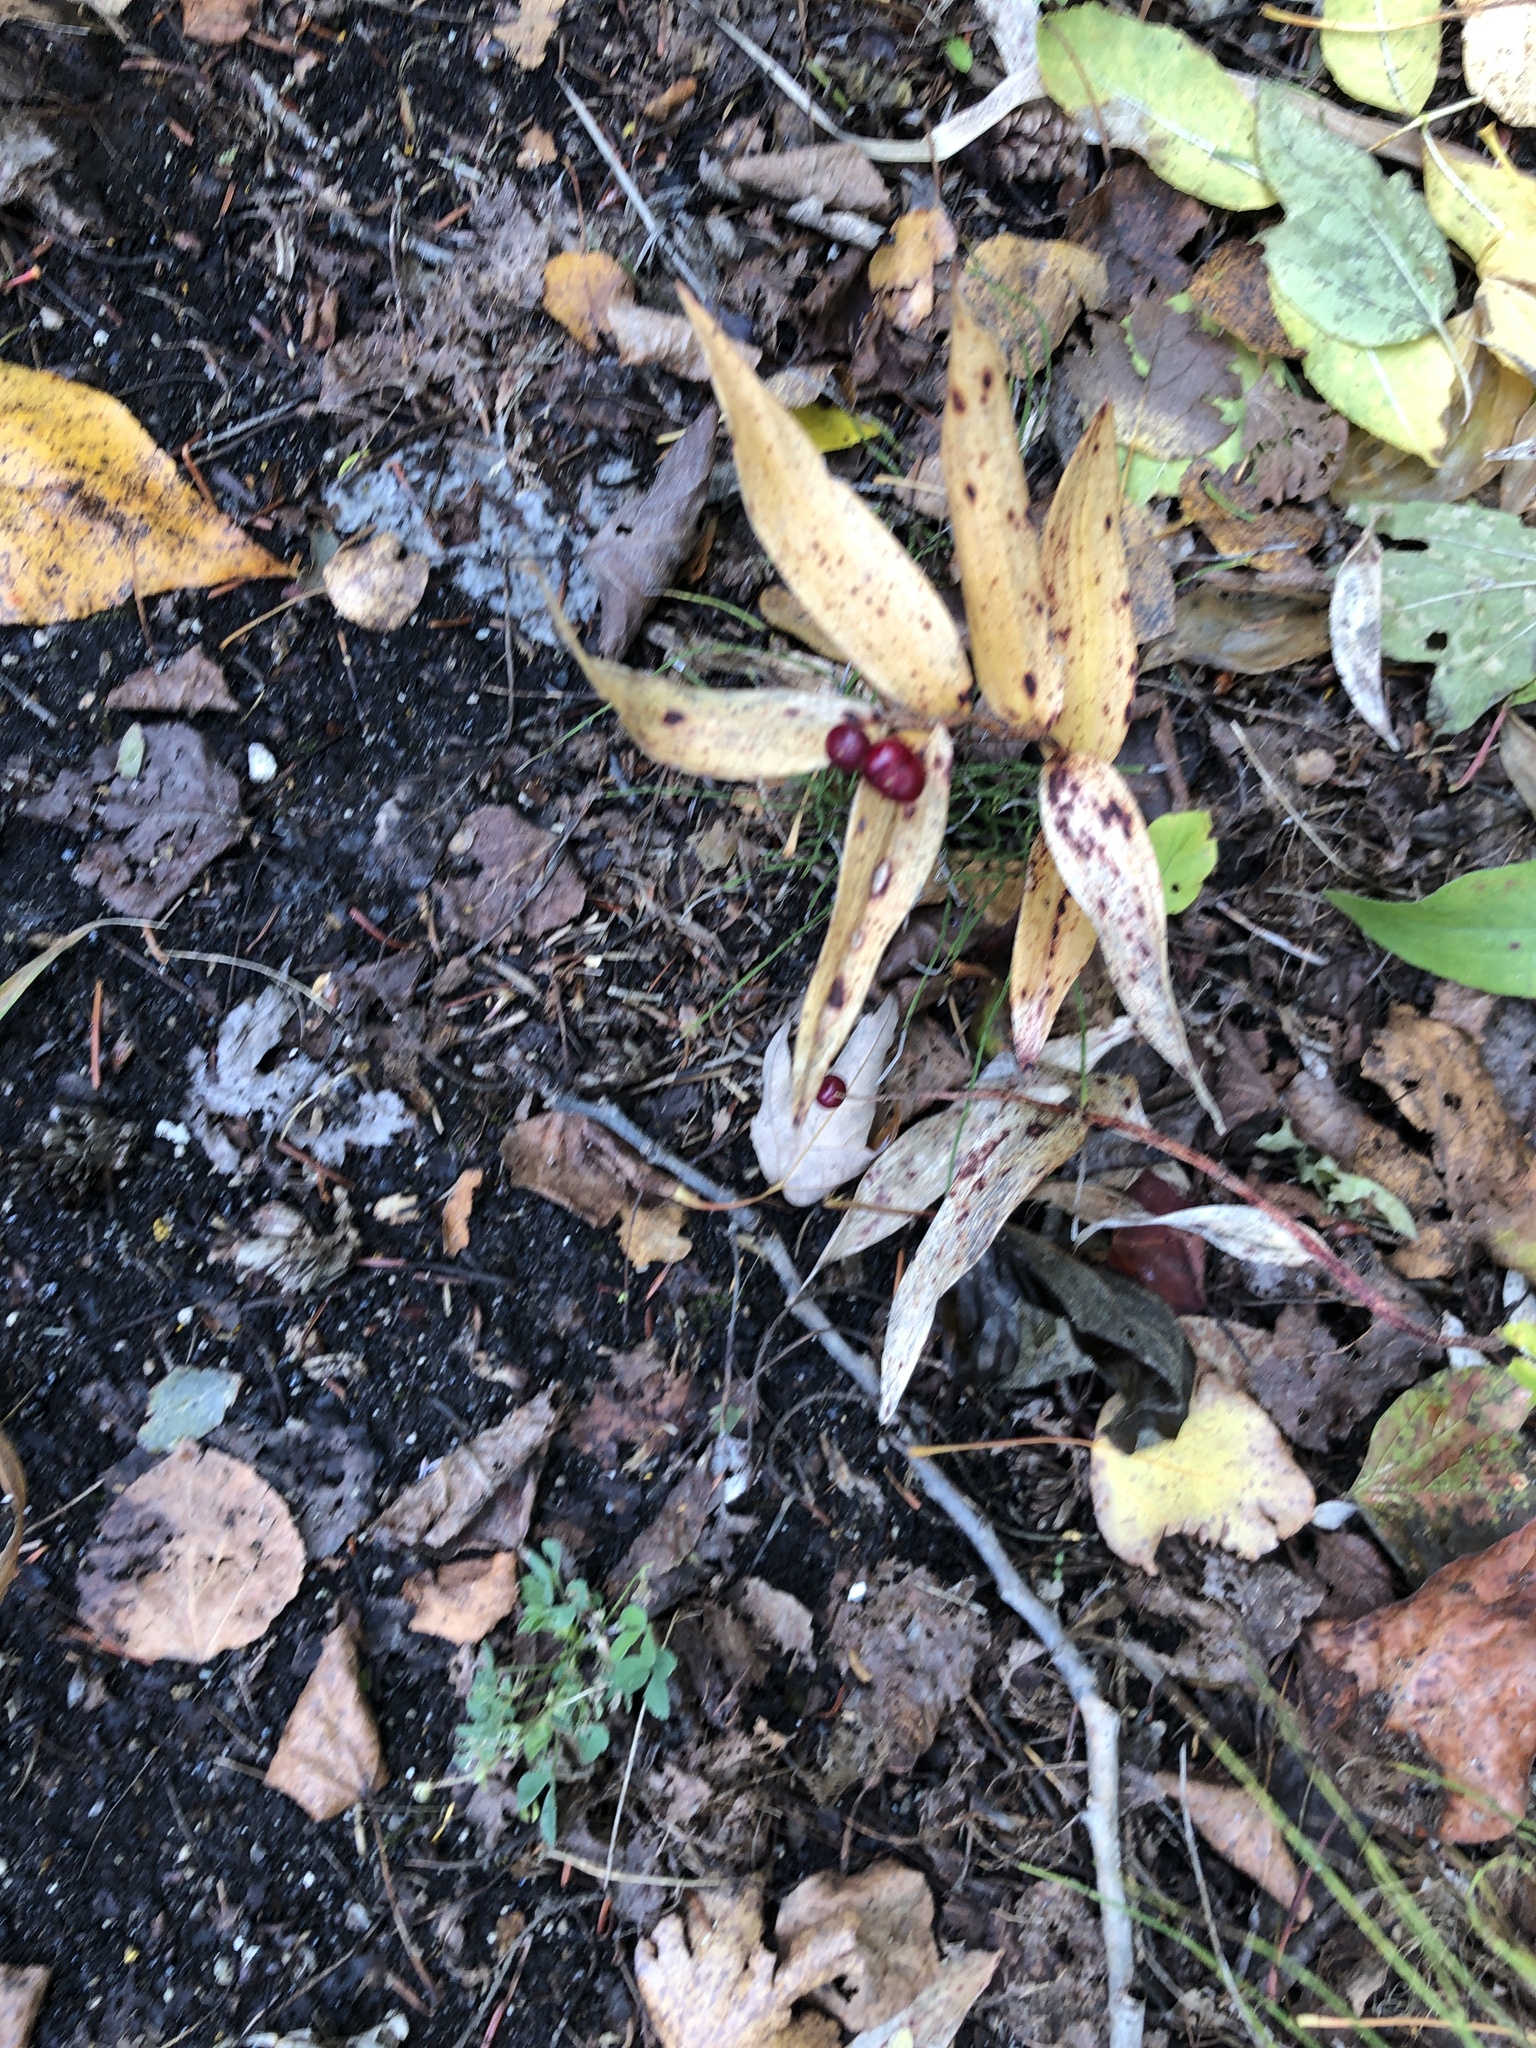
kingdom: Plantae
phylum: Tracheophyta
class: Liliopsida
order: Asparagales
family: Asparagaceae
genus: Maianthemum
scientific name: Maianthemum stellatum
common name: Little false solomon's seal
